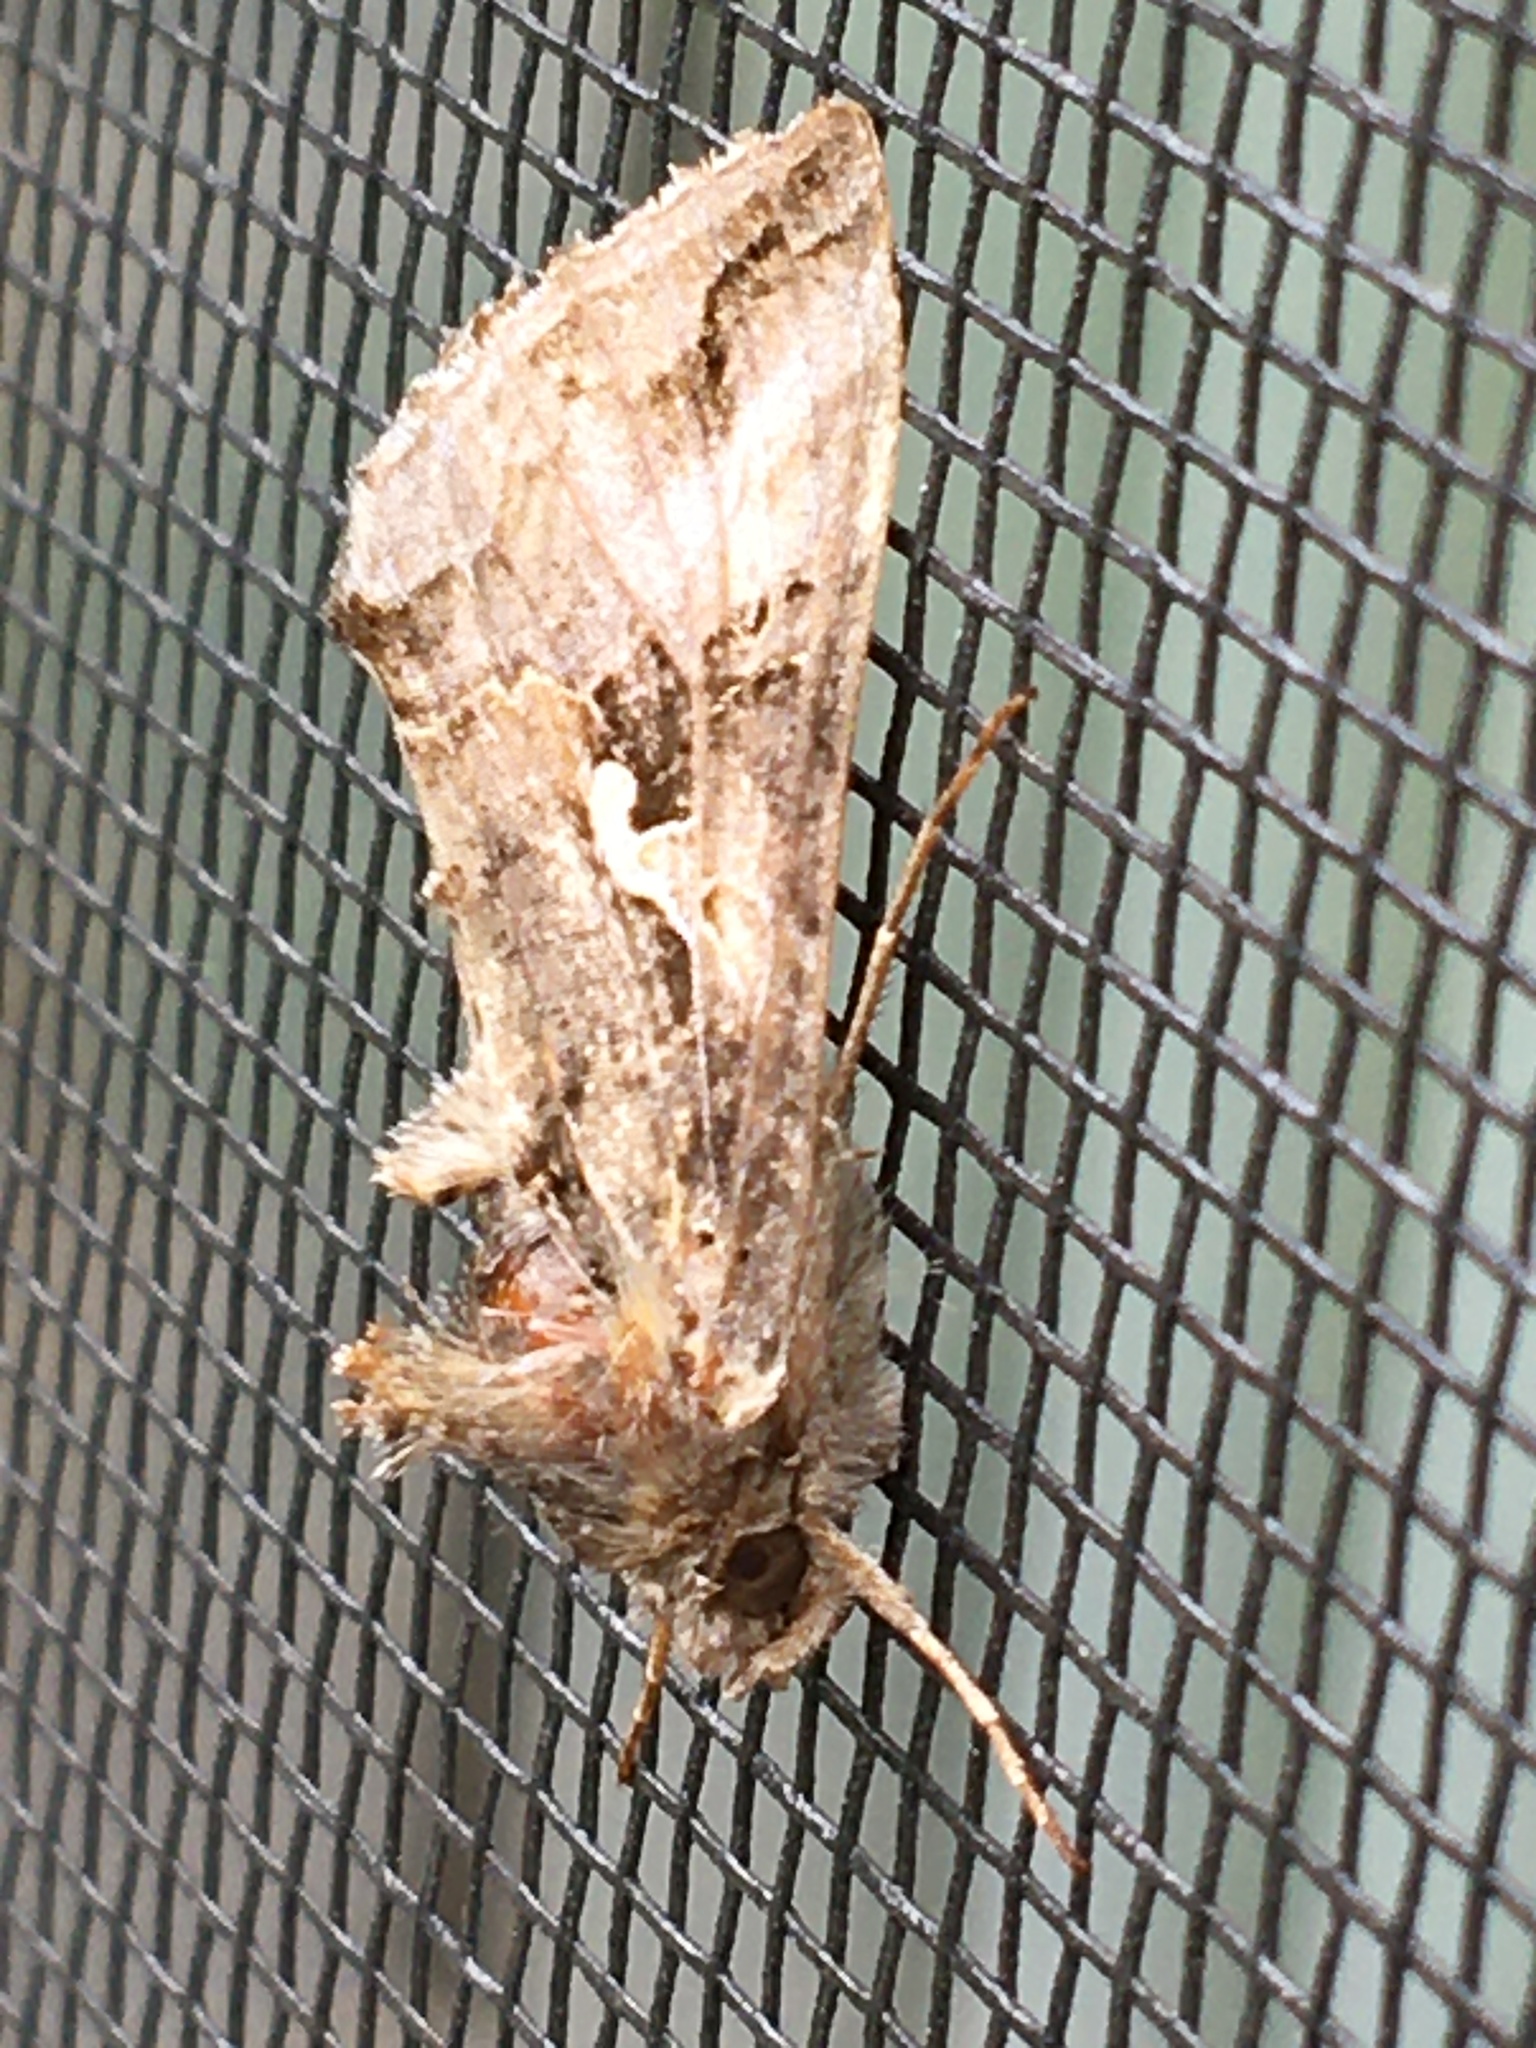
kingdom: Animalia
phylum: Arthropoda
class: Insecta
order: Lepidoptera
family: Noctuidae
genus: Autographa
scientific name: Autographa gamma
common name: Silver y
